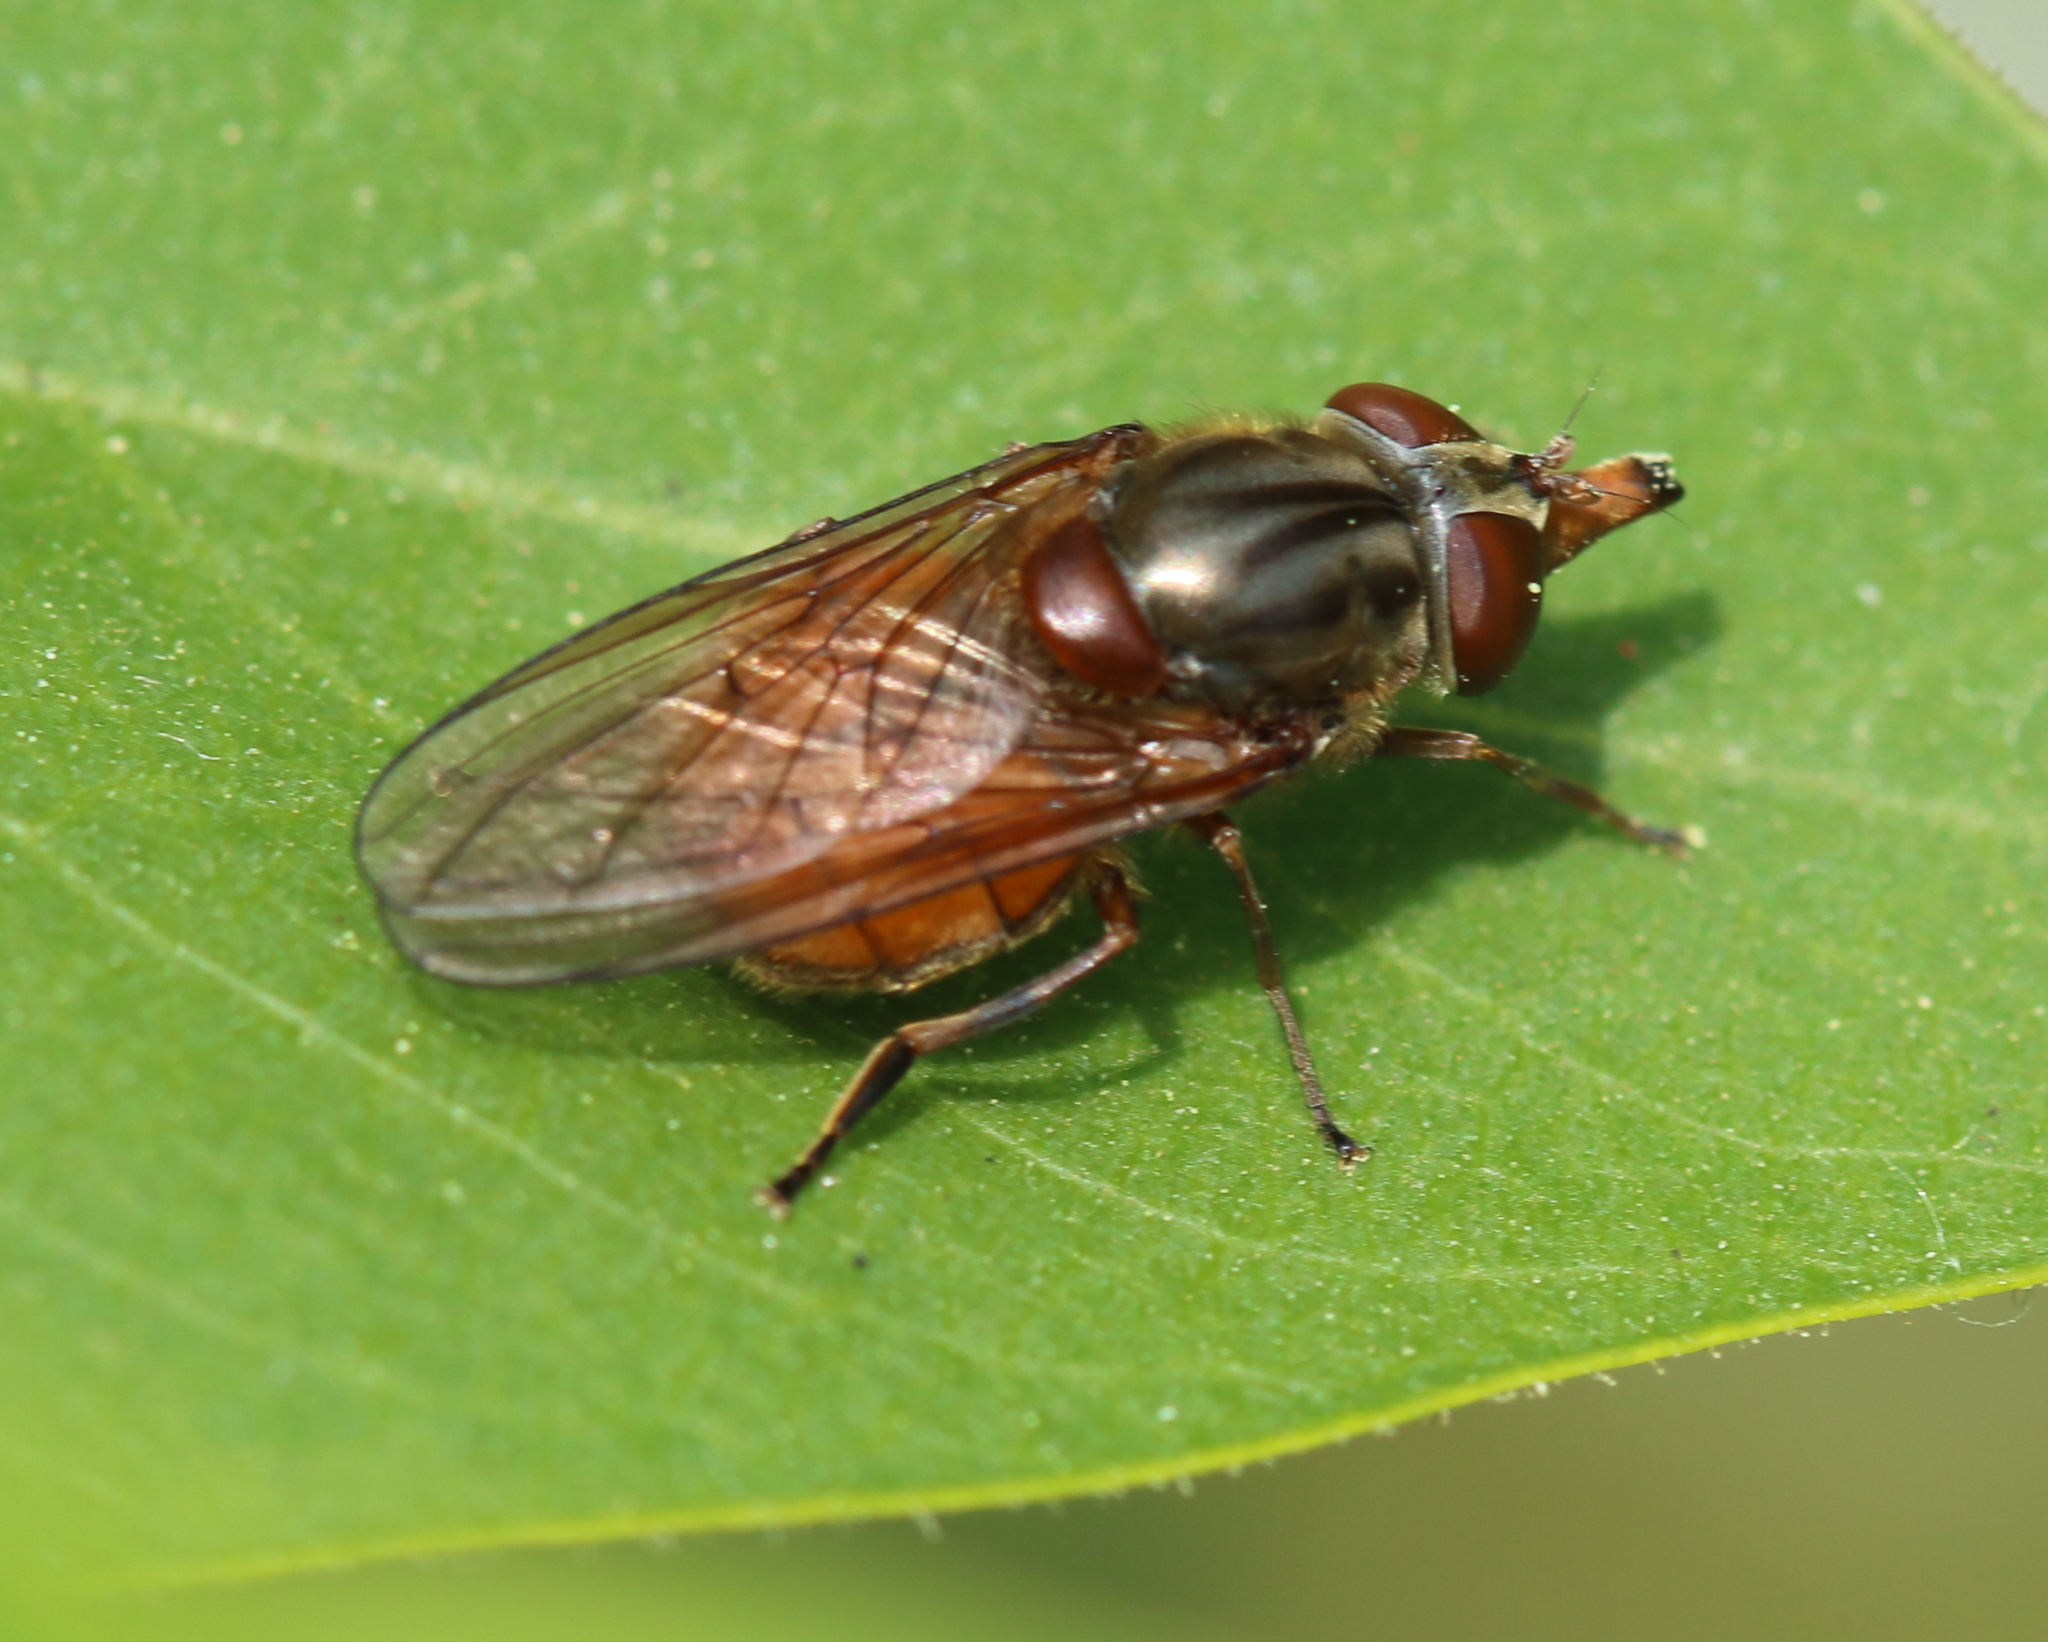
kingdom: Animalia
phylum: Arthropoda
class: Insecta
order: Diptera
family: Syrphidae
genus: Rhingia
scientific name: Rhingia campestris
